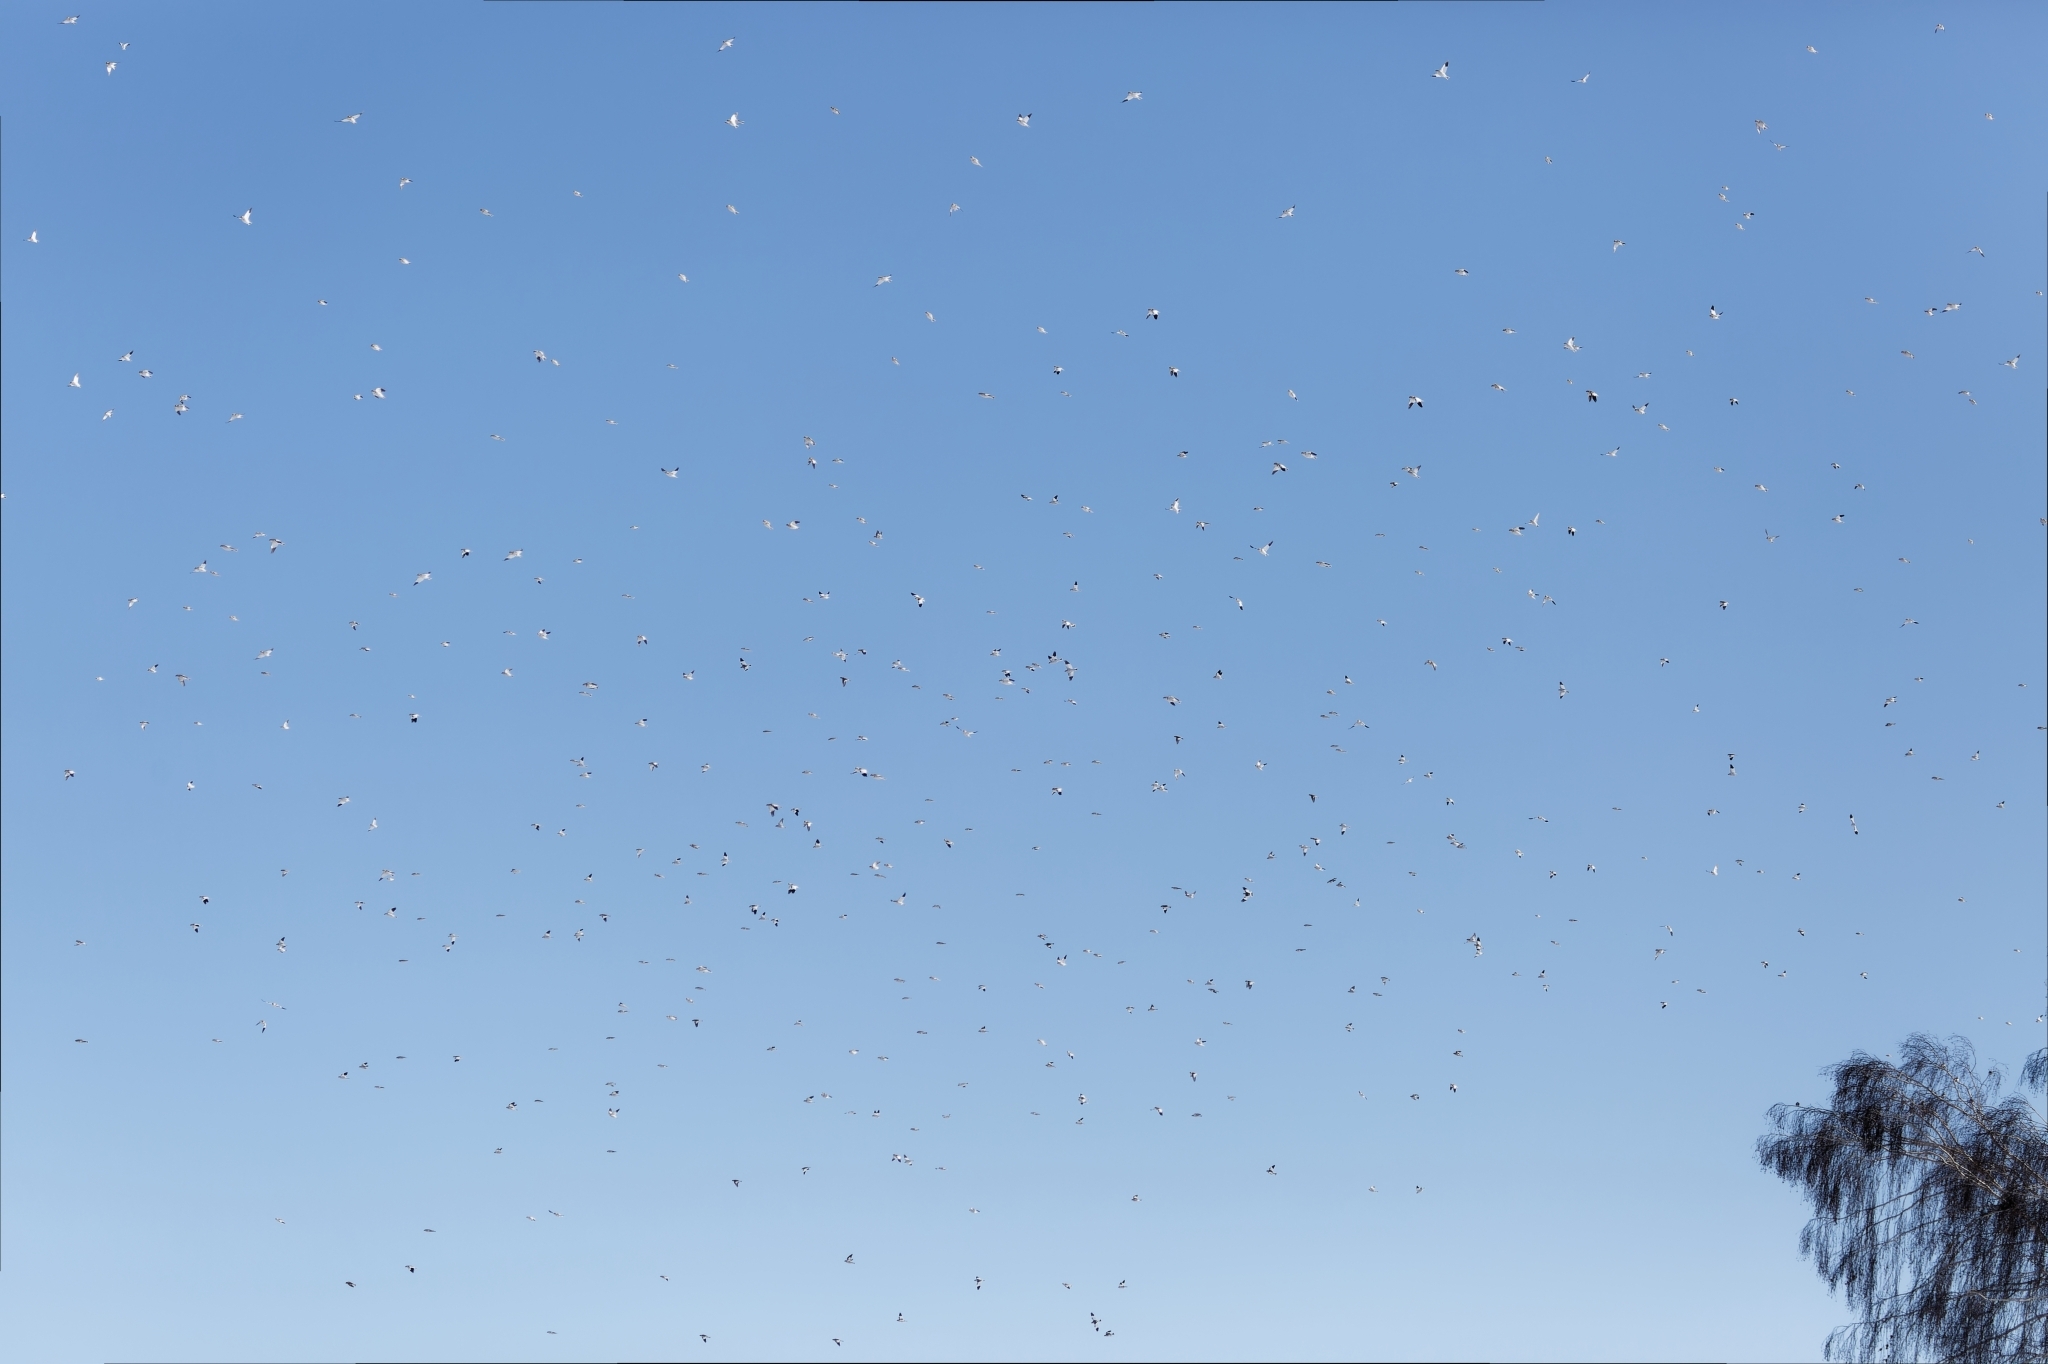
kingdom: Animalia
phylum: Chordata
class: Aves
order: Passeriformes
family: Calcariidae
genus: Plectrophenax
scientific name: Plectrophenax nivalis
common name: Snow bunting
